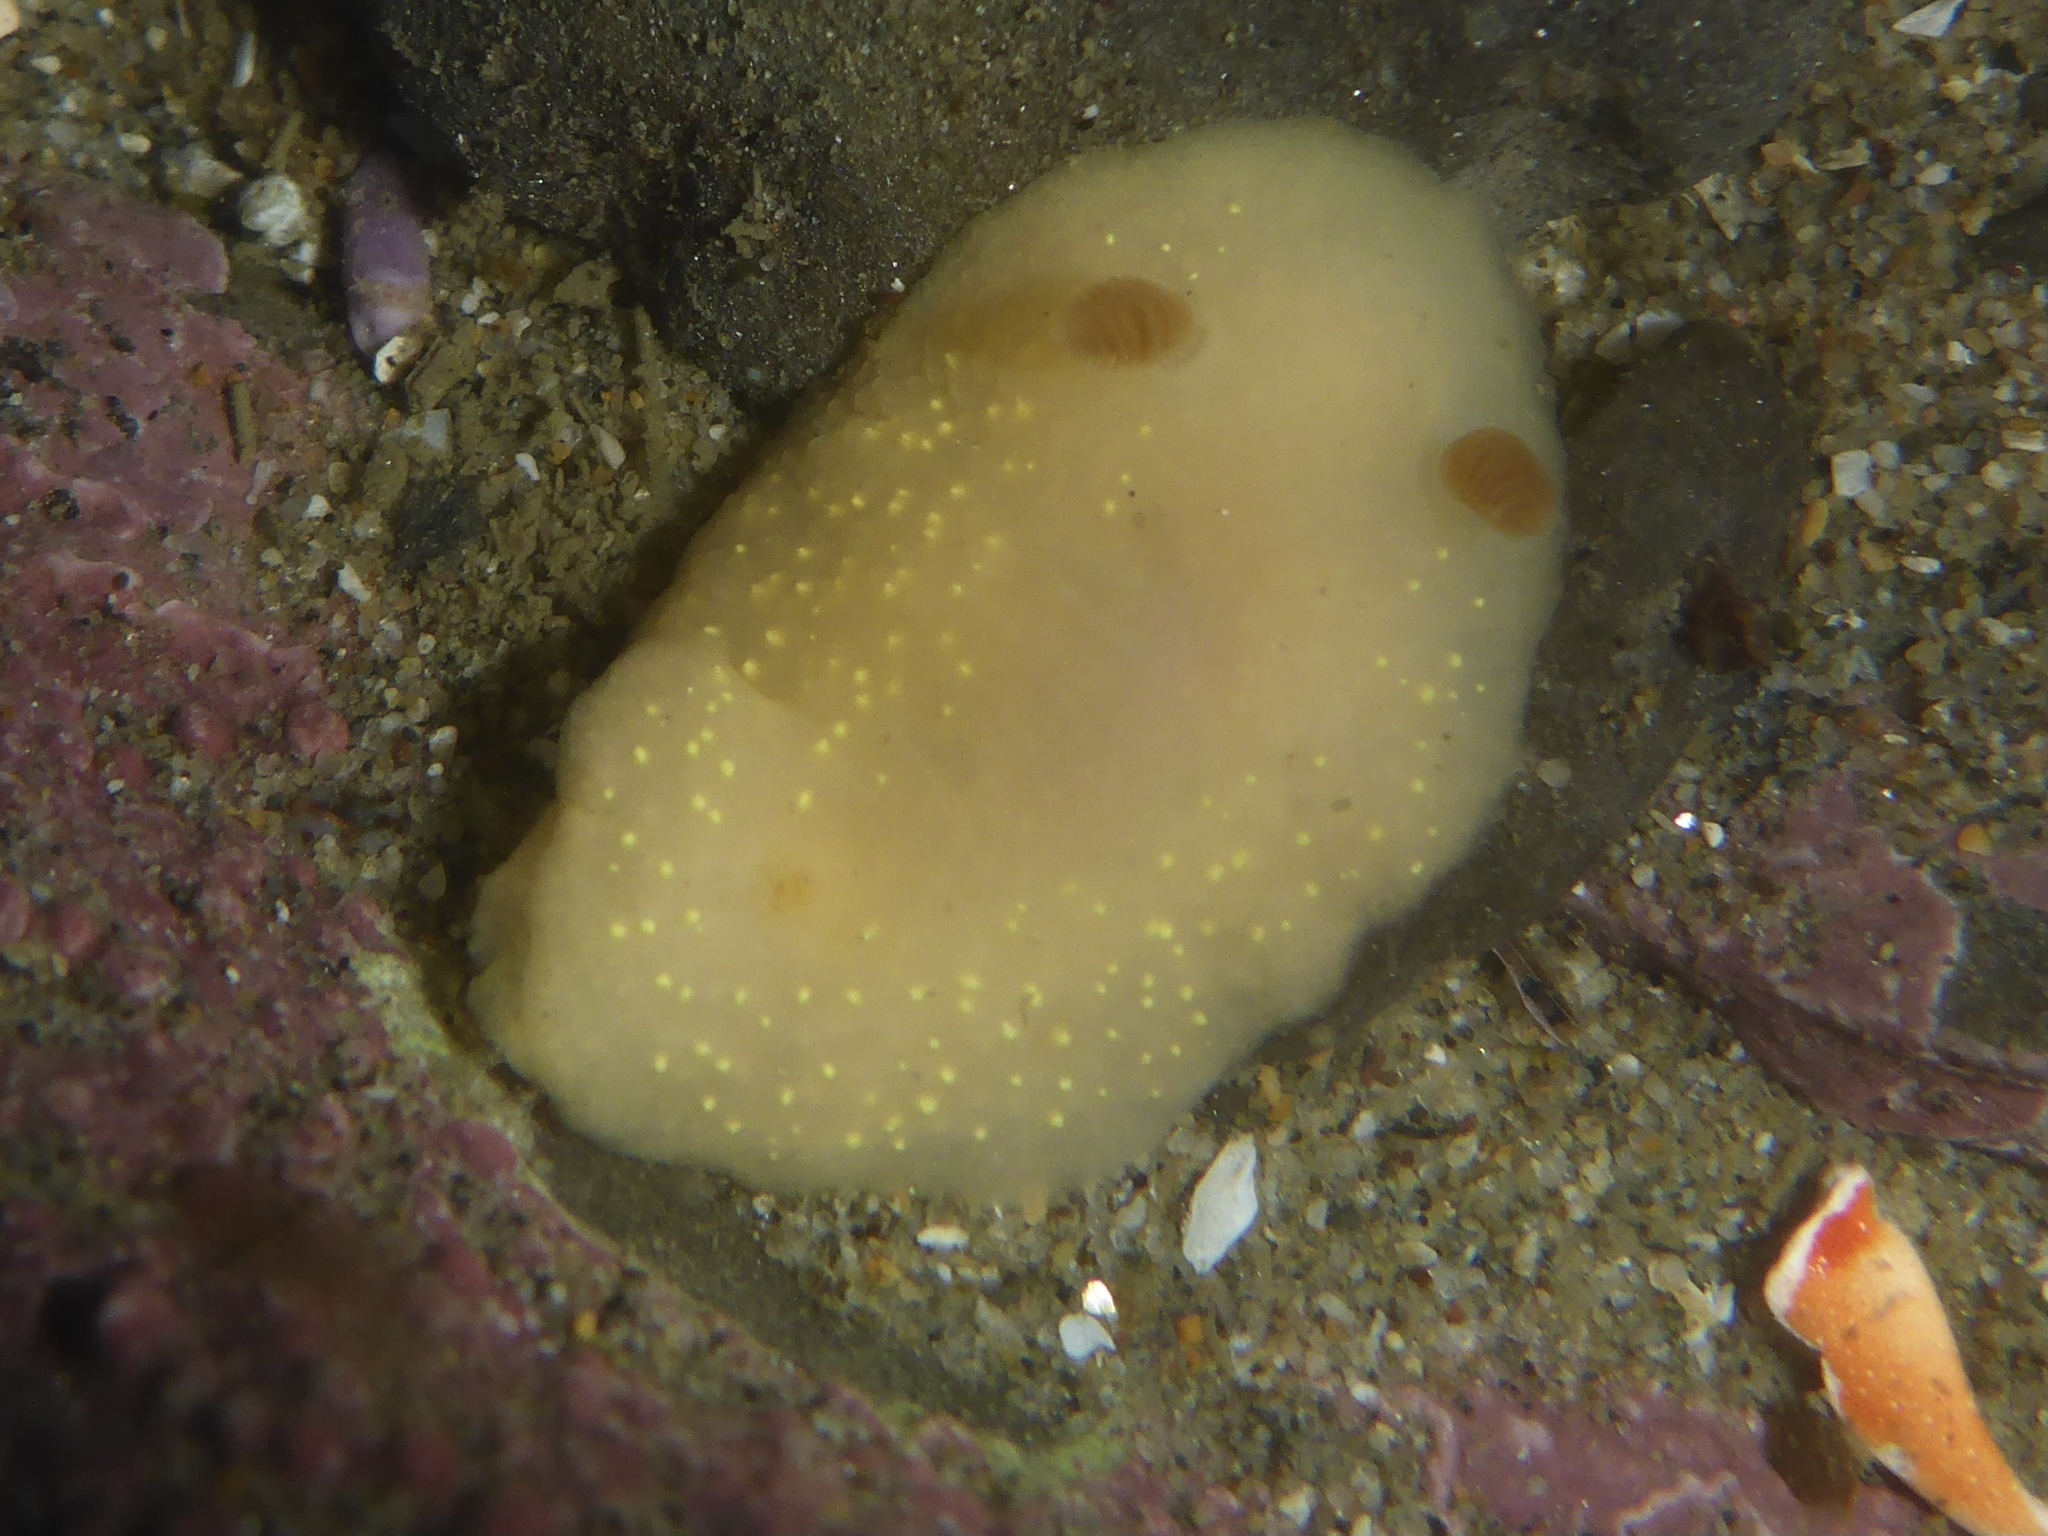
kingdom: Animalia
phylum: Mollusca
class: Gastropoda
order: Nudibranchia
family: Cadlinidae
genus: Cadlina
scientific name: Cadlina modesta
